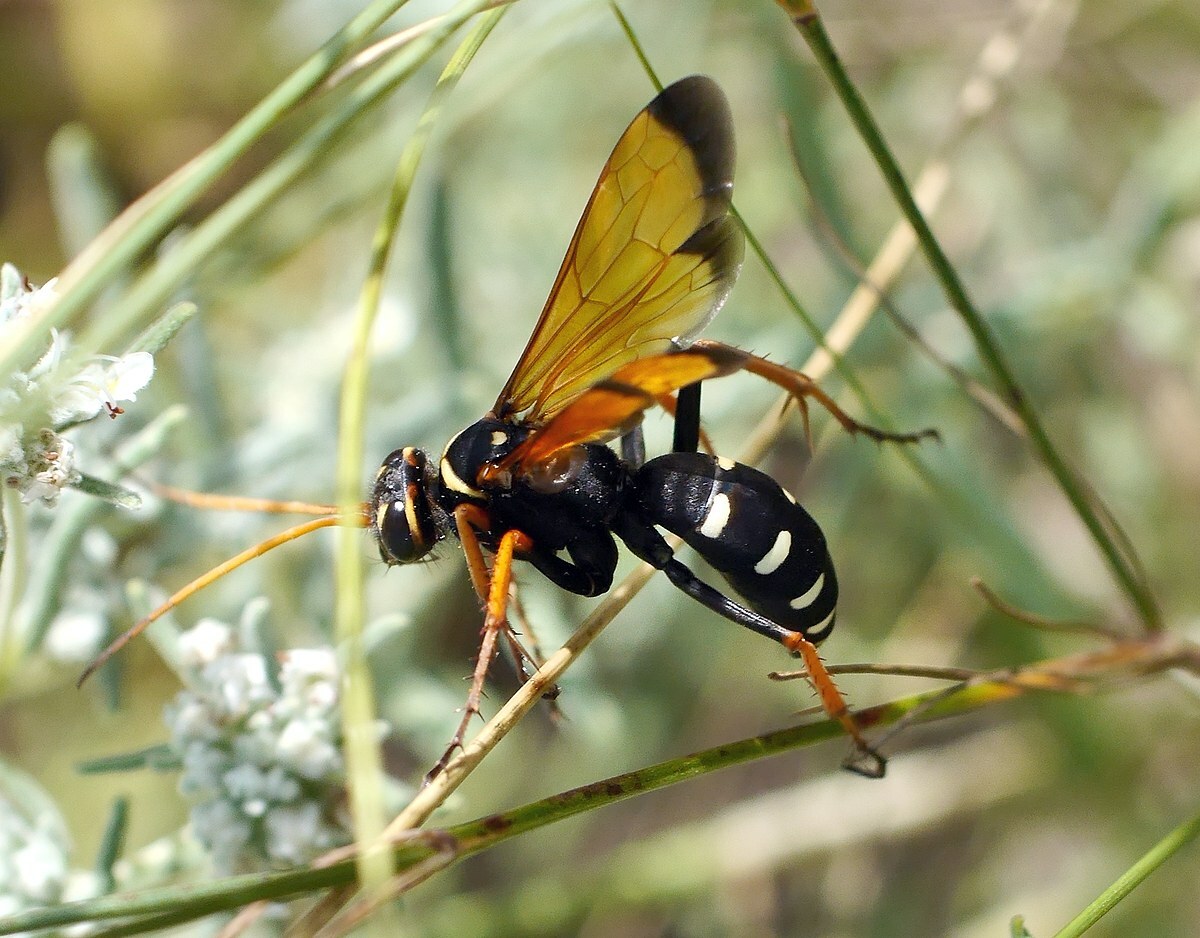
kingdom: Animalia
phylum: Arthropoda
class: Insecta
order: Hymenoptera
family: Pompilidae
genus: Parabatozonus
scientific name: Parabatozonus lacerticida
